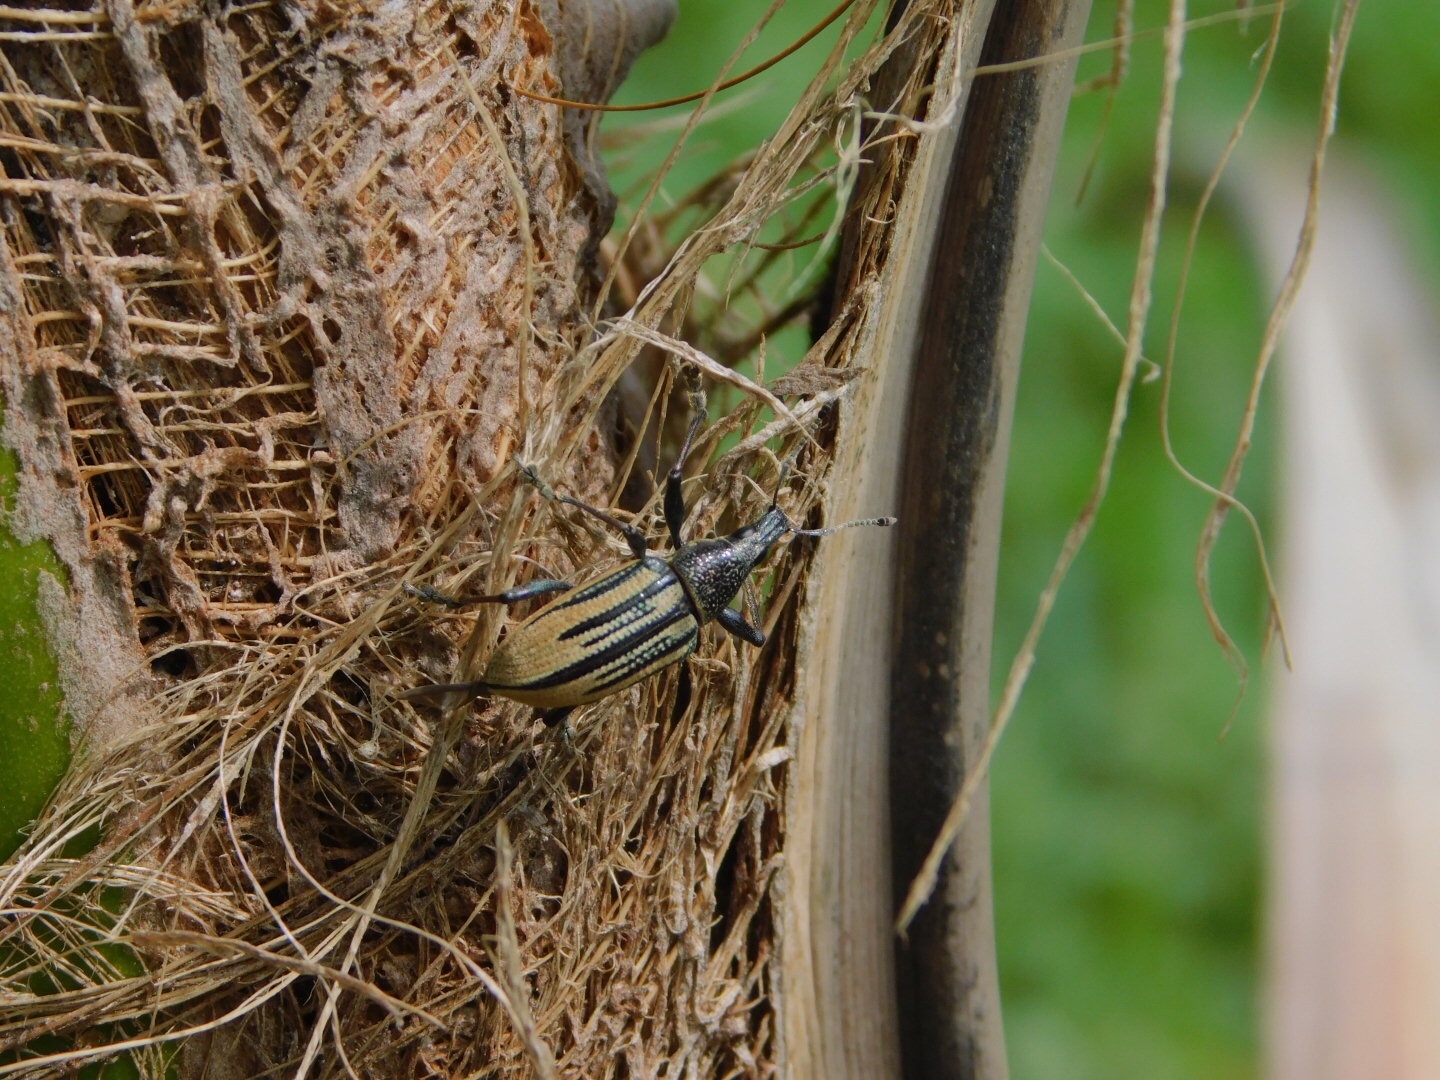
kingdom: Animalia
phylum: Arthropoda
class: Insecta
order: Coleoptera
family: Curculionidae
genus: Diaprepes
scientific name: Diaprepes abbreviatus
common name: Root weevil
